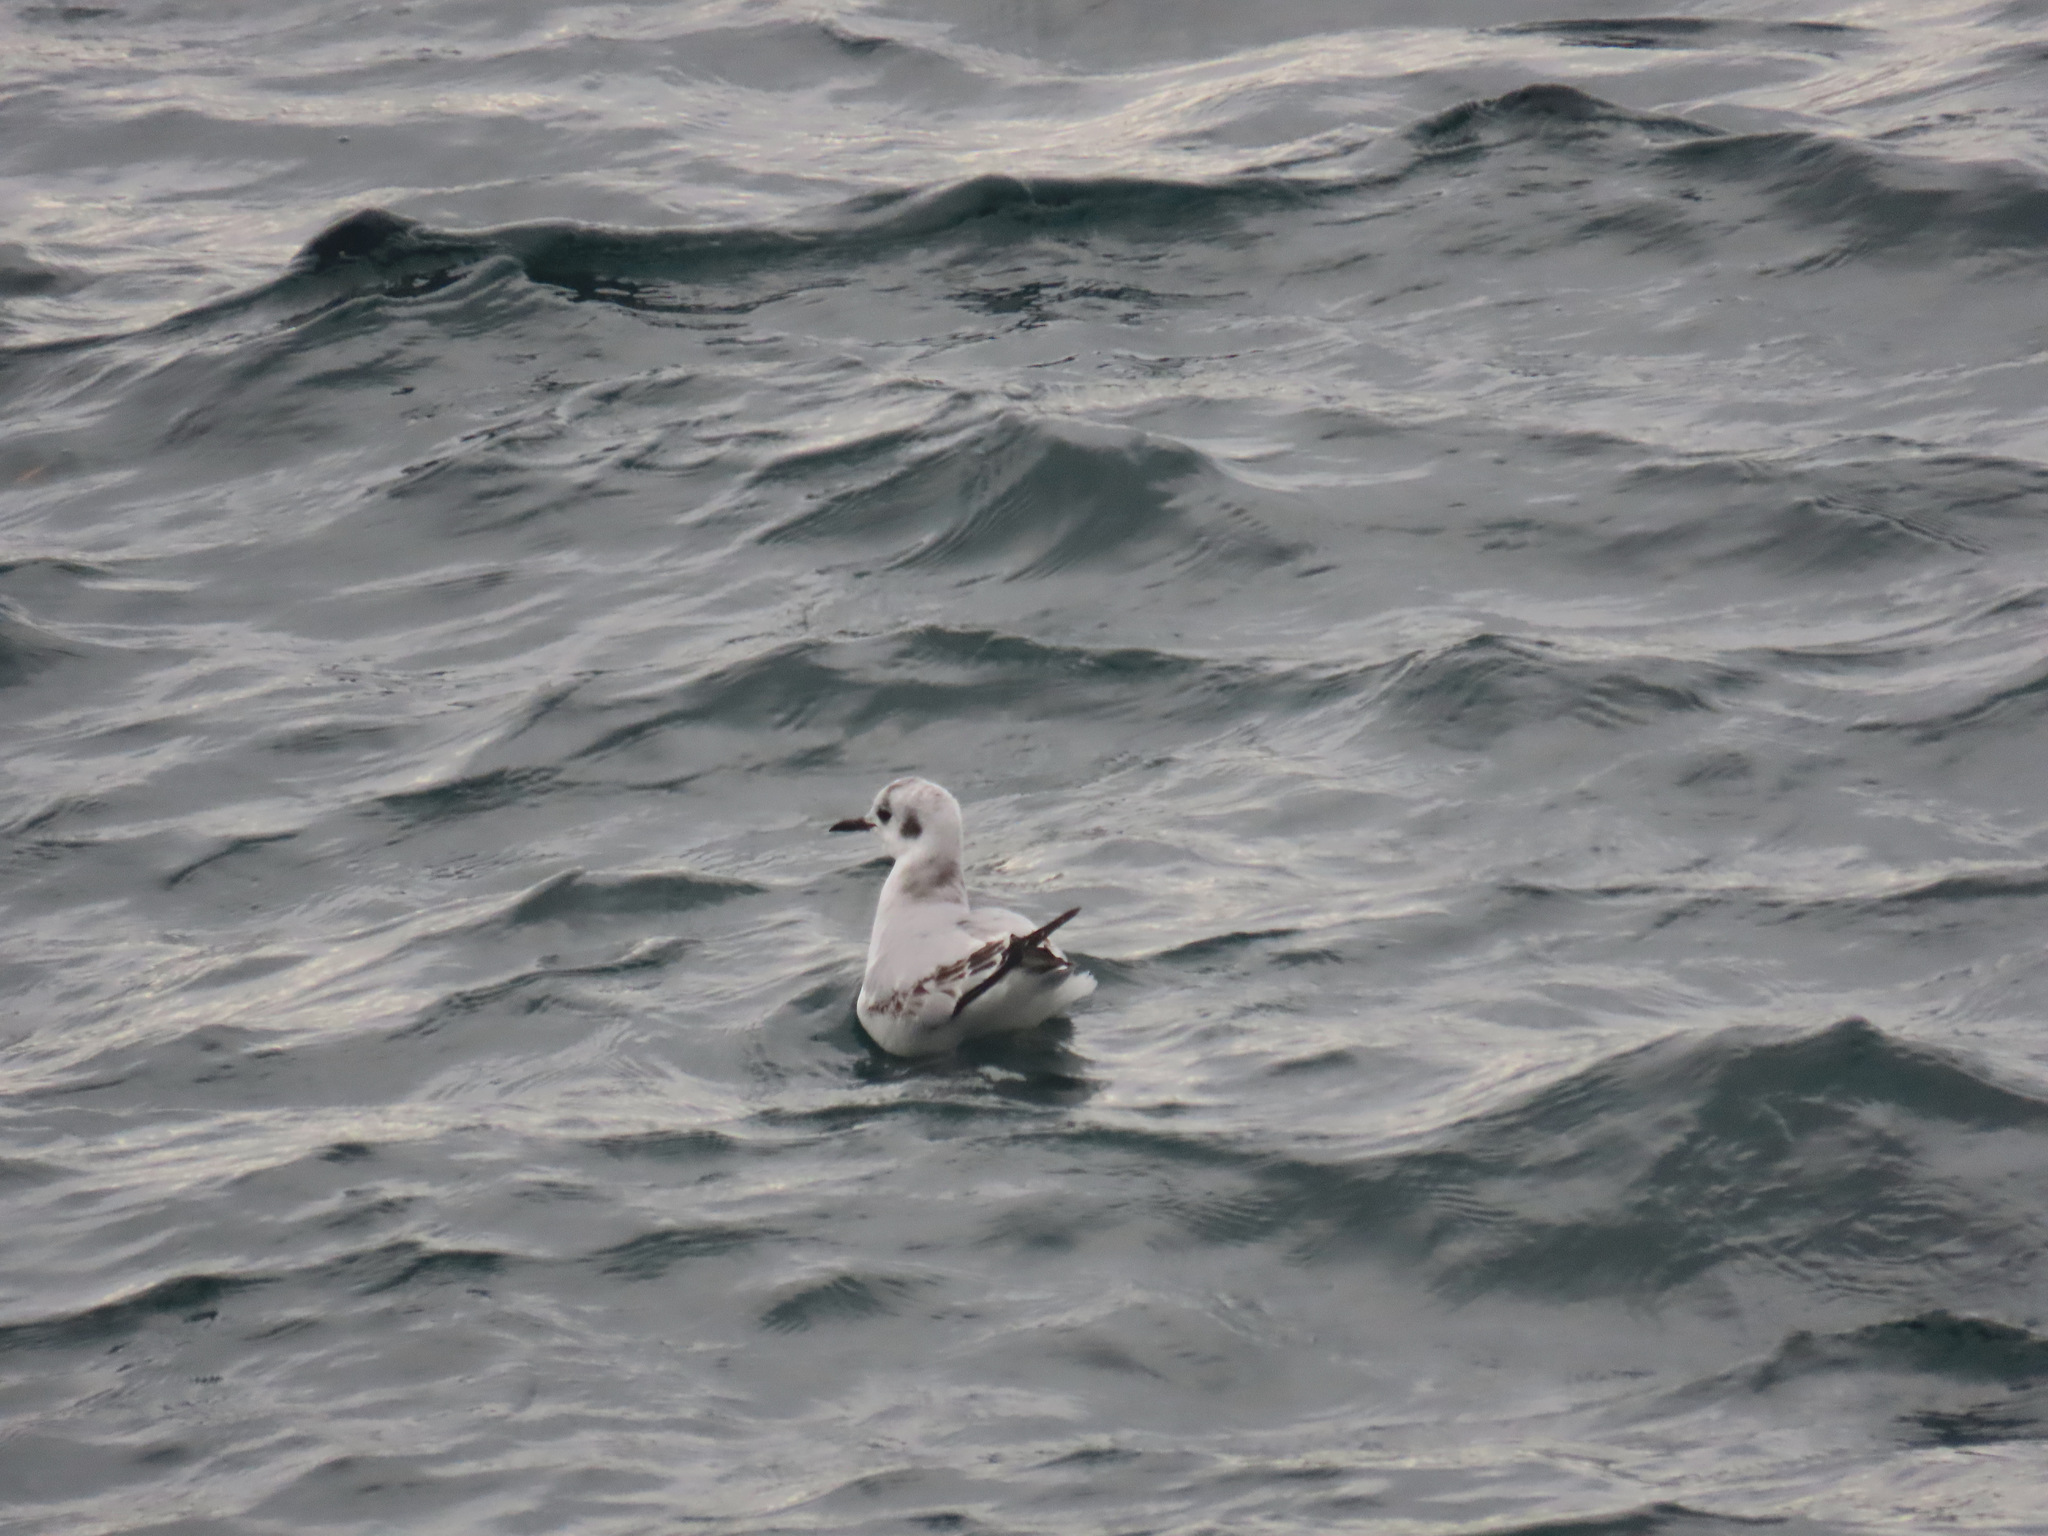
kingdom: Animalia
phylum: Chordata
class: Aves
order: Charadriiformes
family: Laridae
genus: Chroicocephalus
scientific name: Chroicocephalus philadelphia
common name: Bonaparte's gull
